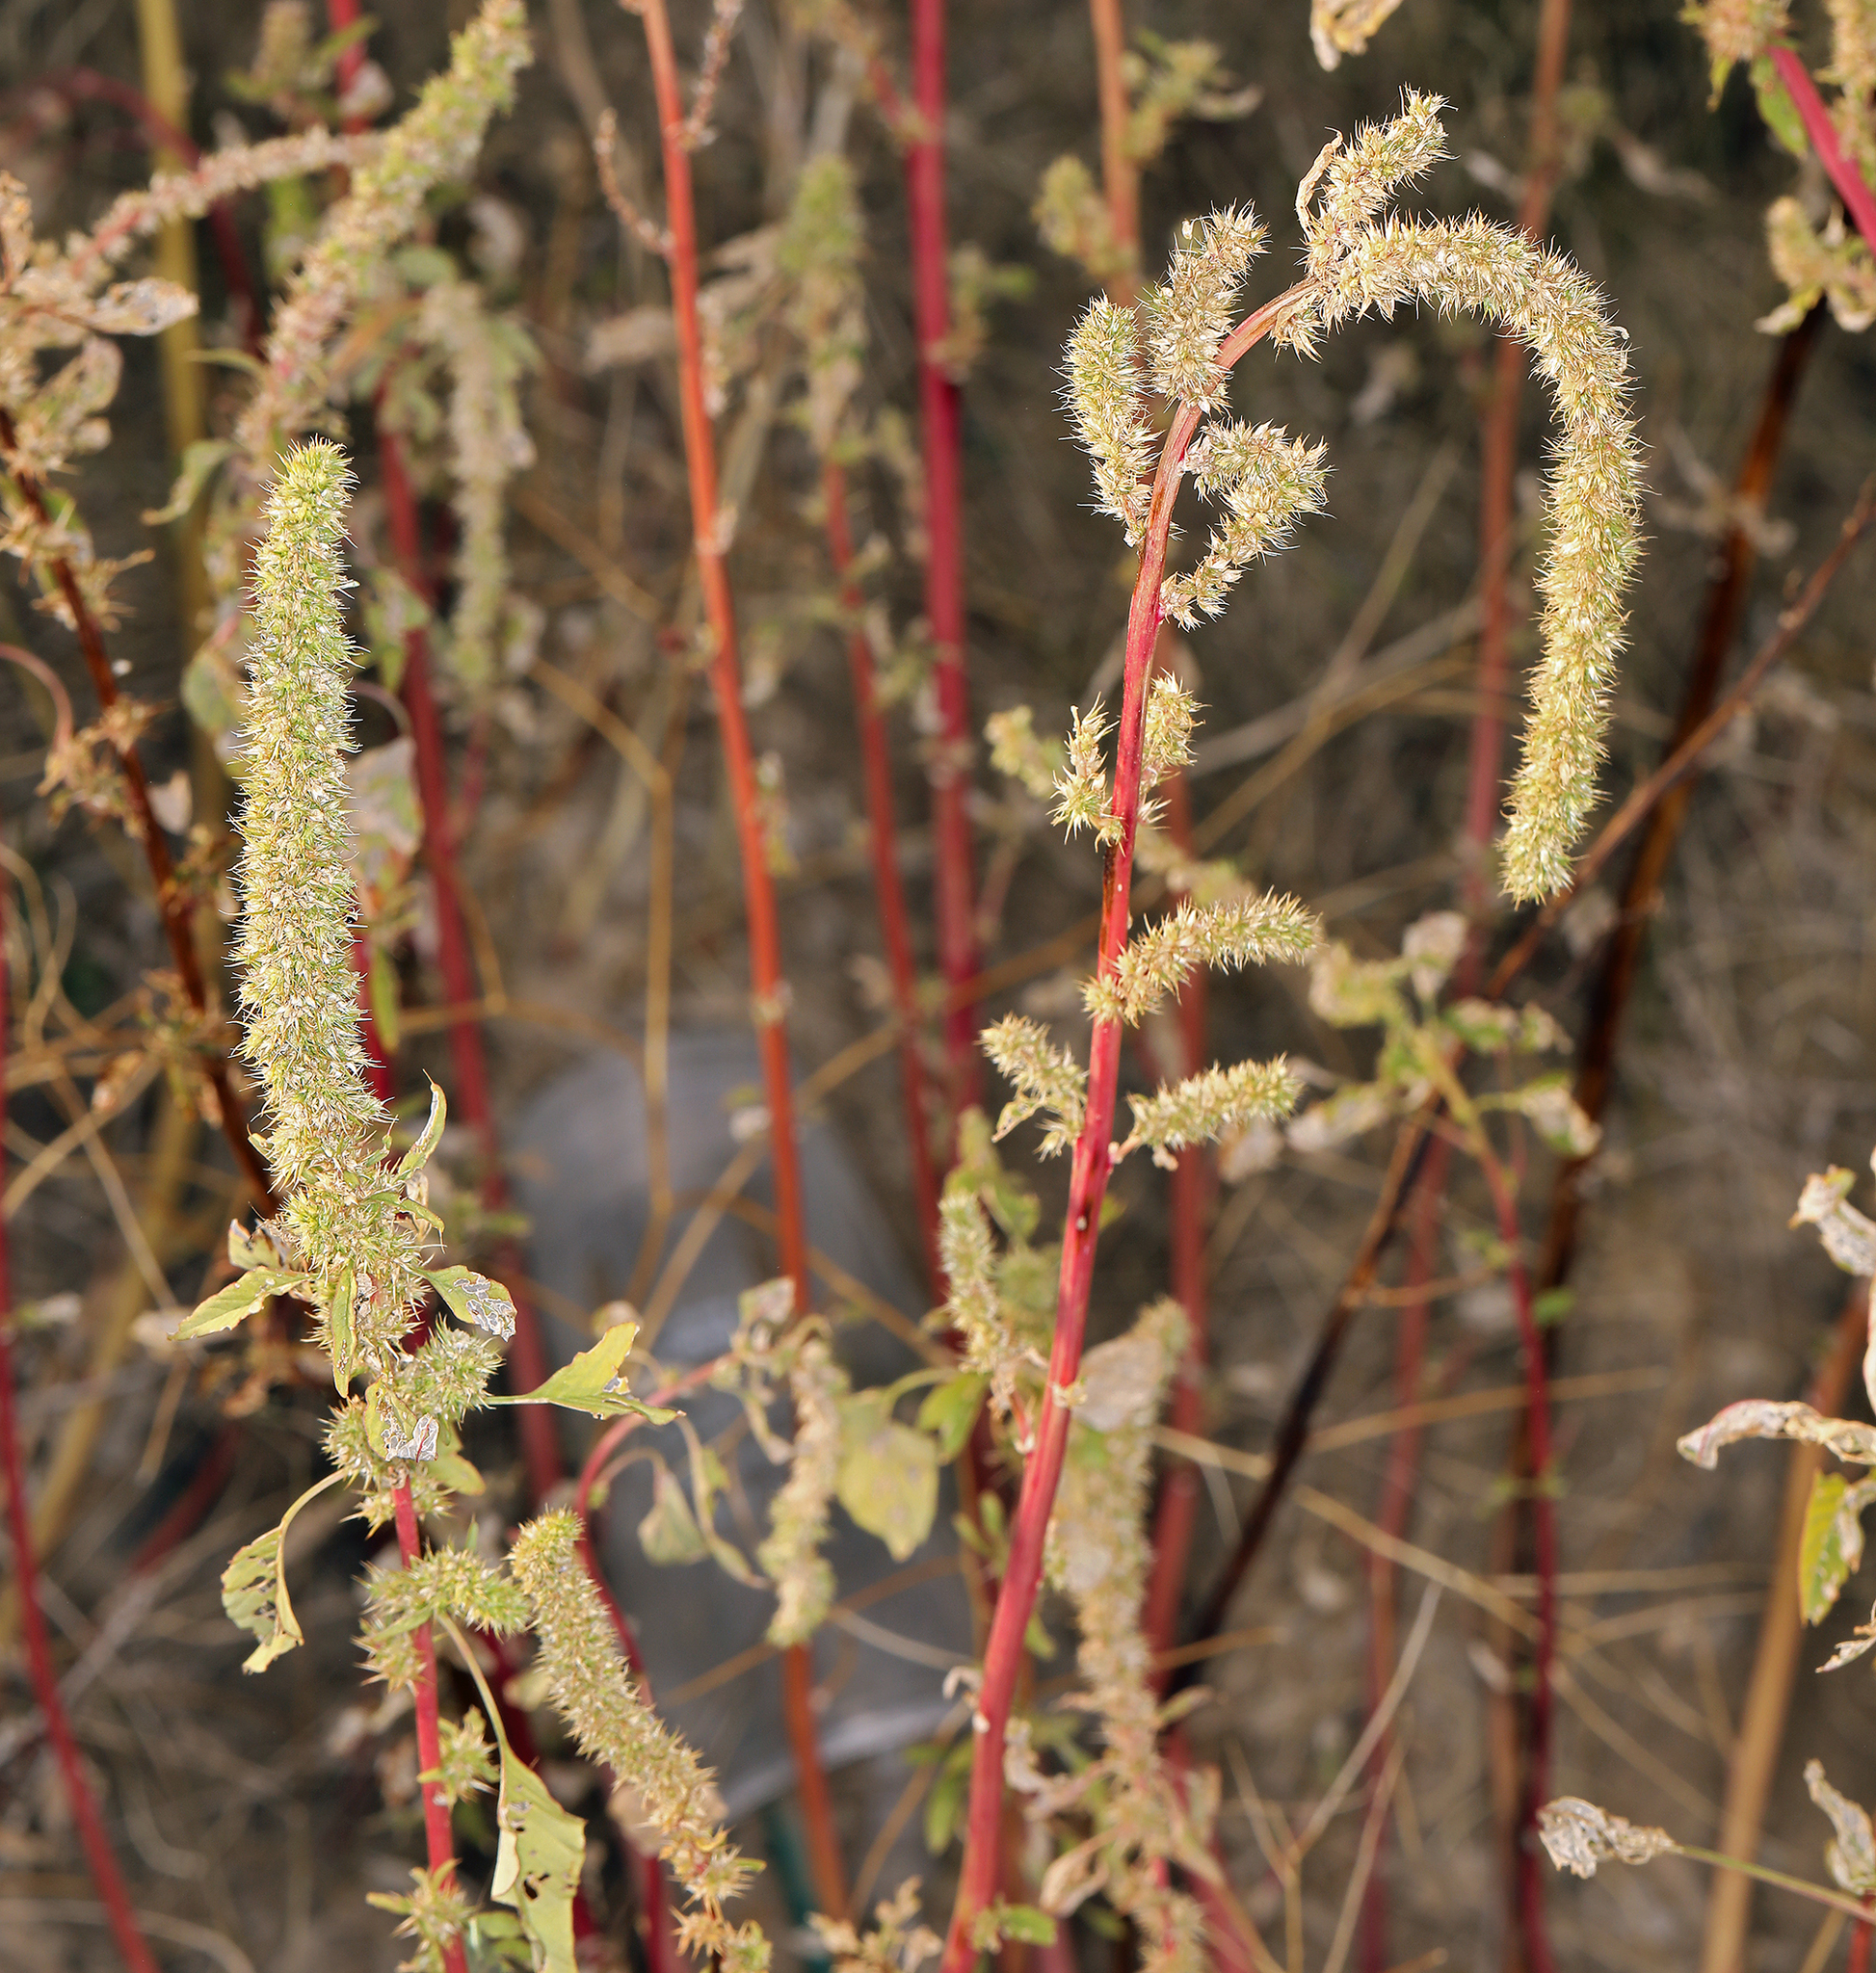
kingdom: Plantae
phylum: Tracheophyta
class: Magnoliopsida
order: Caryophyllales
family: Amaranthaceae
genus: Amaranthus
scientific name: Amaranthus palmeri
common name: Dioecious amaranth
